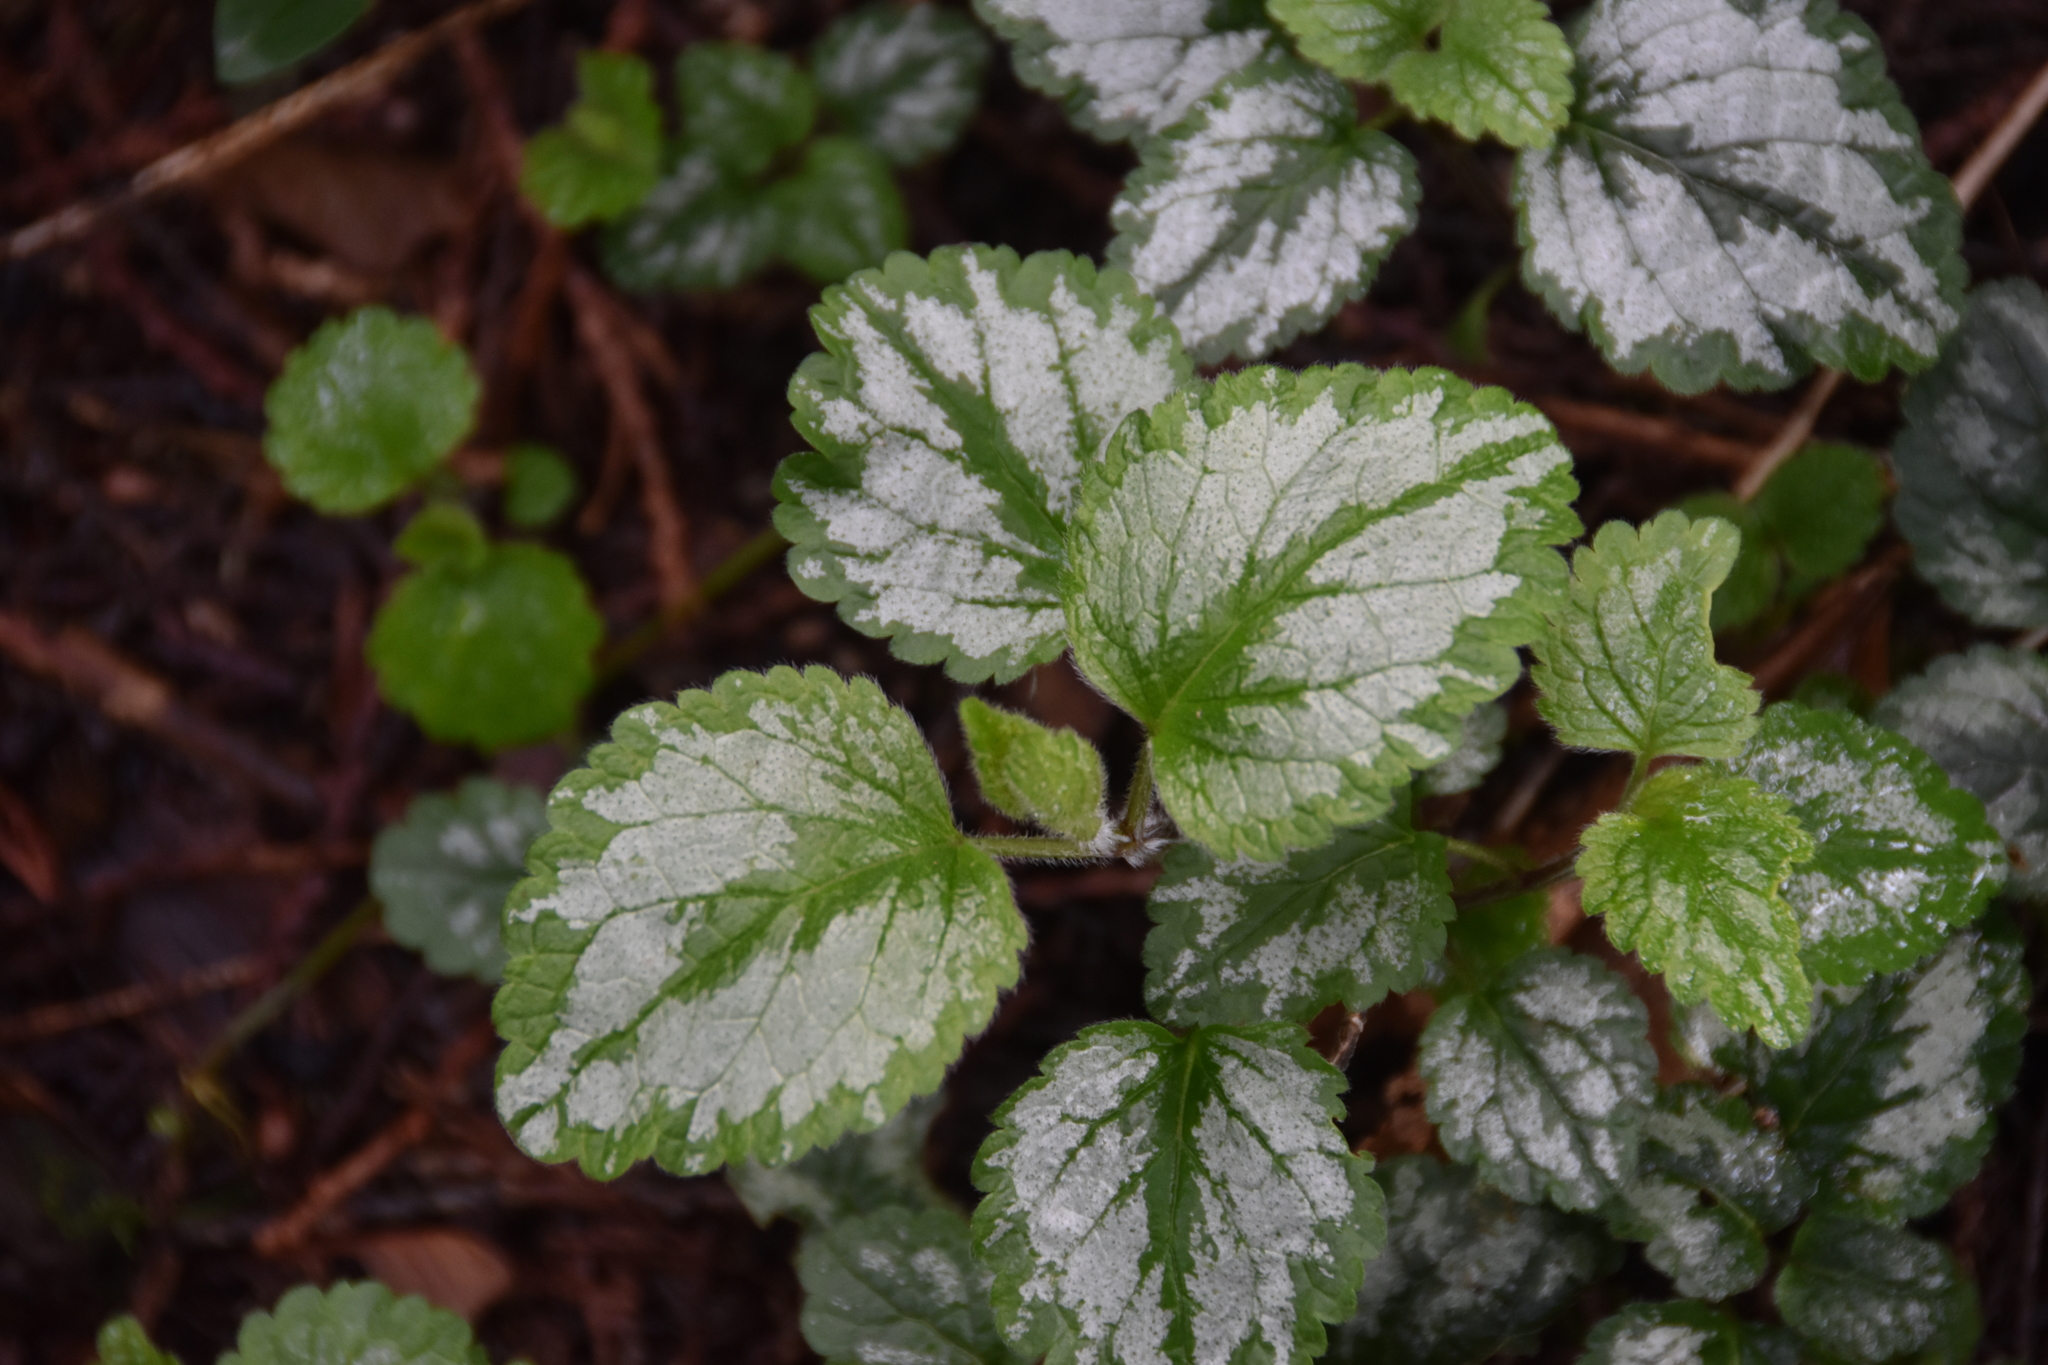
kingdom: Plantae
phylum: Tracheophyta
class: Magnoliopsida
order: Lamiales
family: Lamiaceae
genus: Lamium
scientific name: Lamium galeobdolon
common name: Yellow archangel
